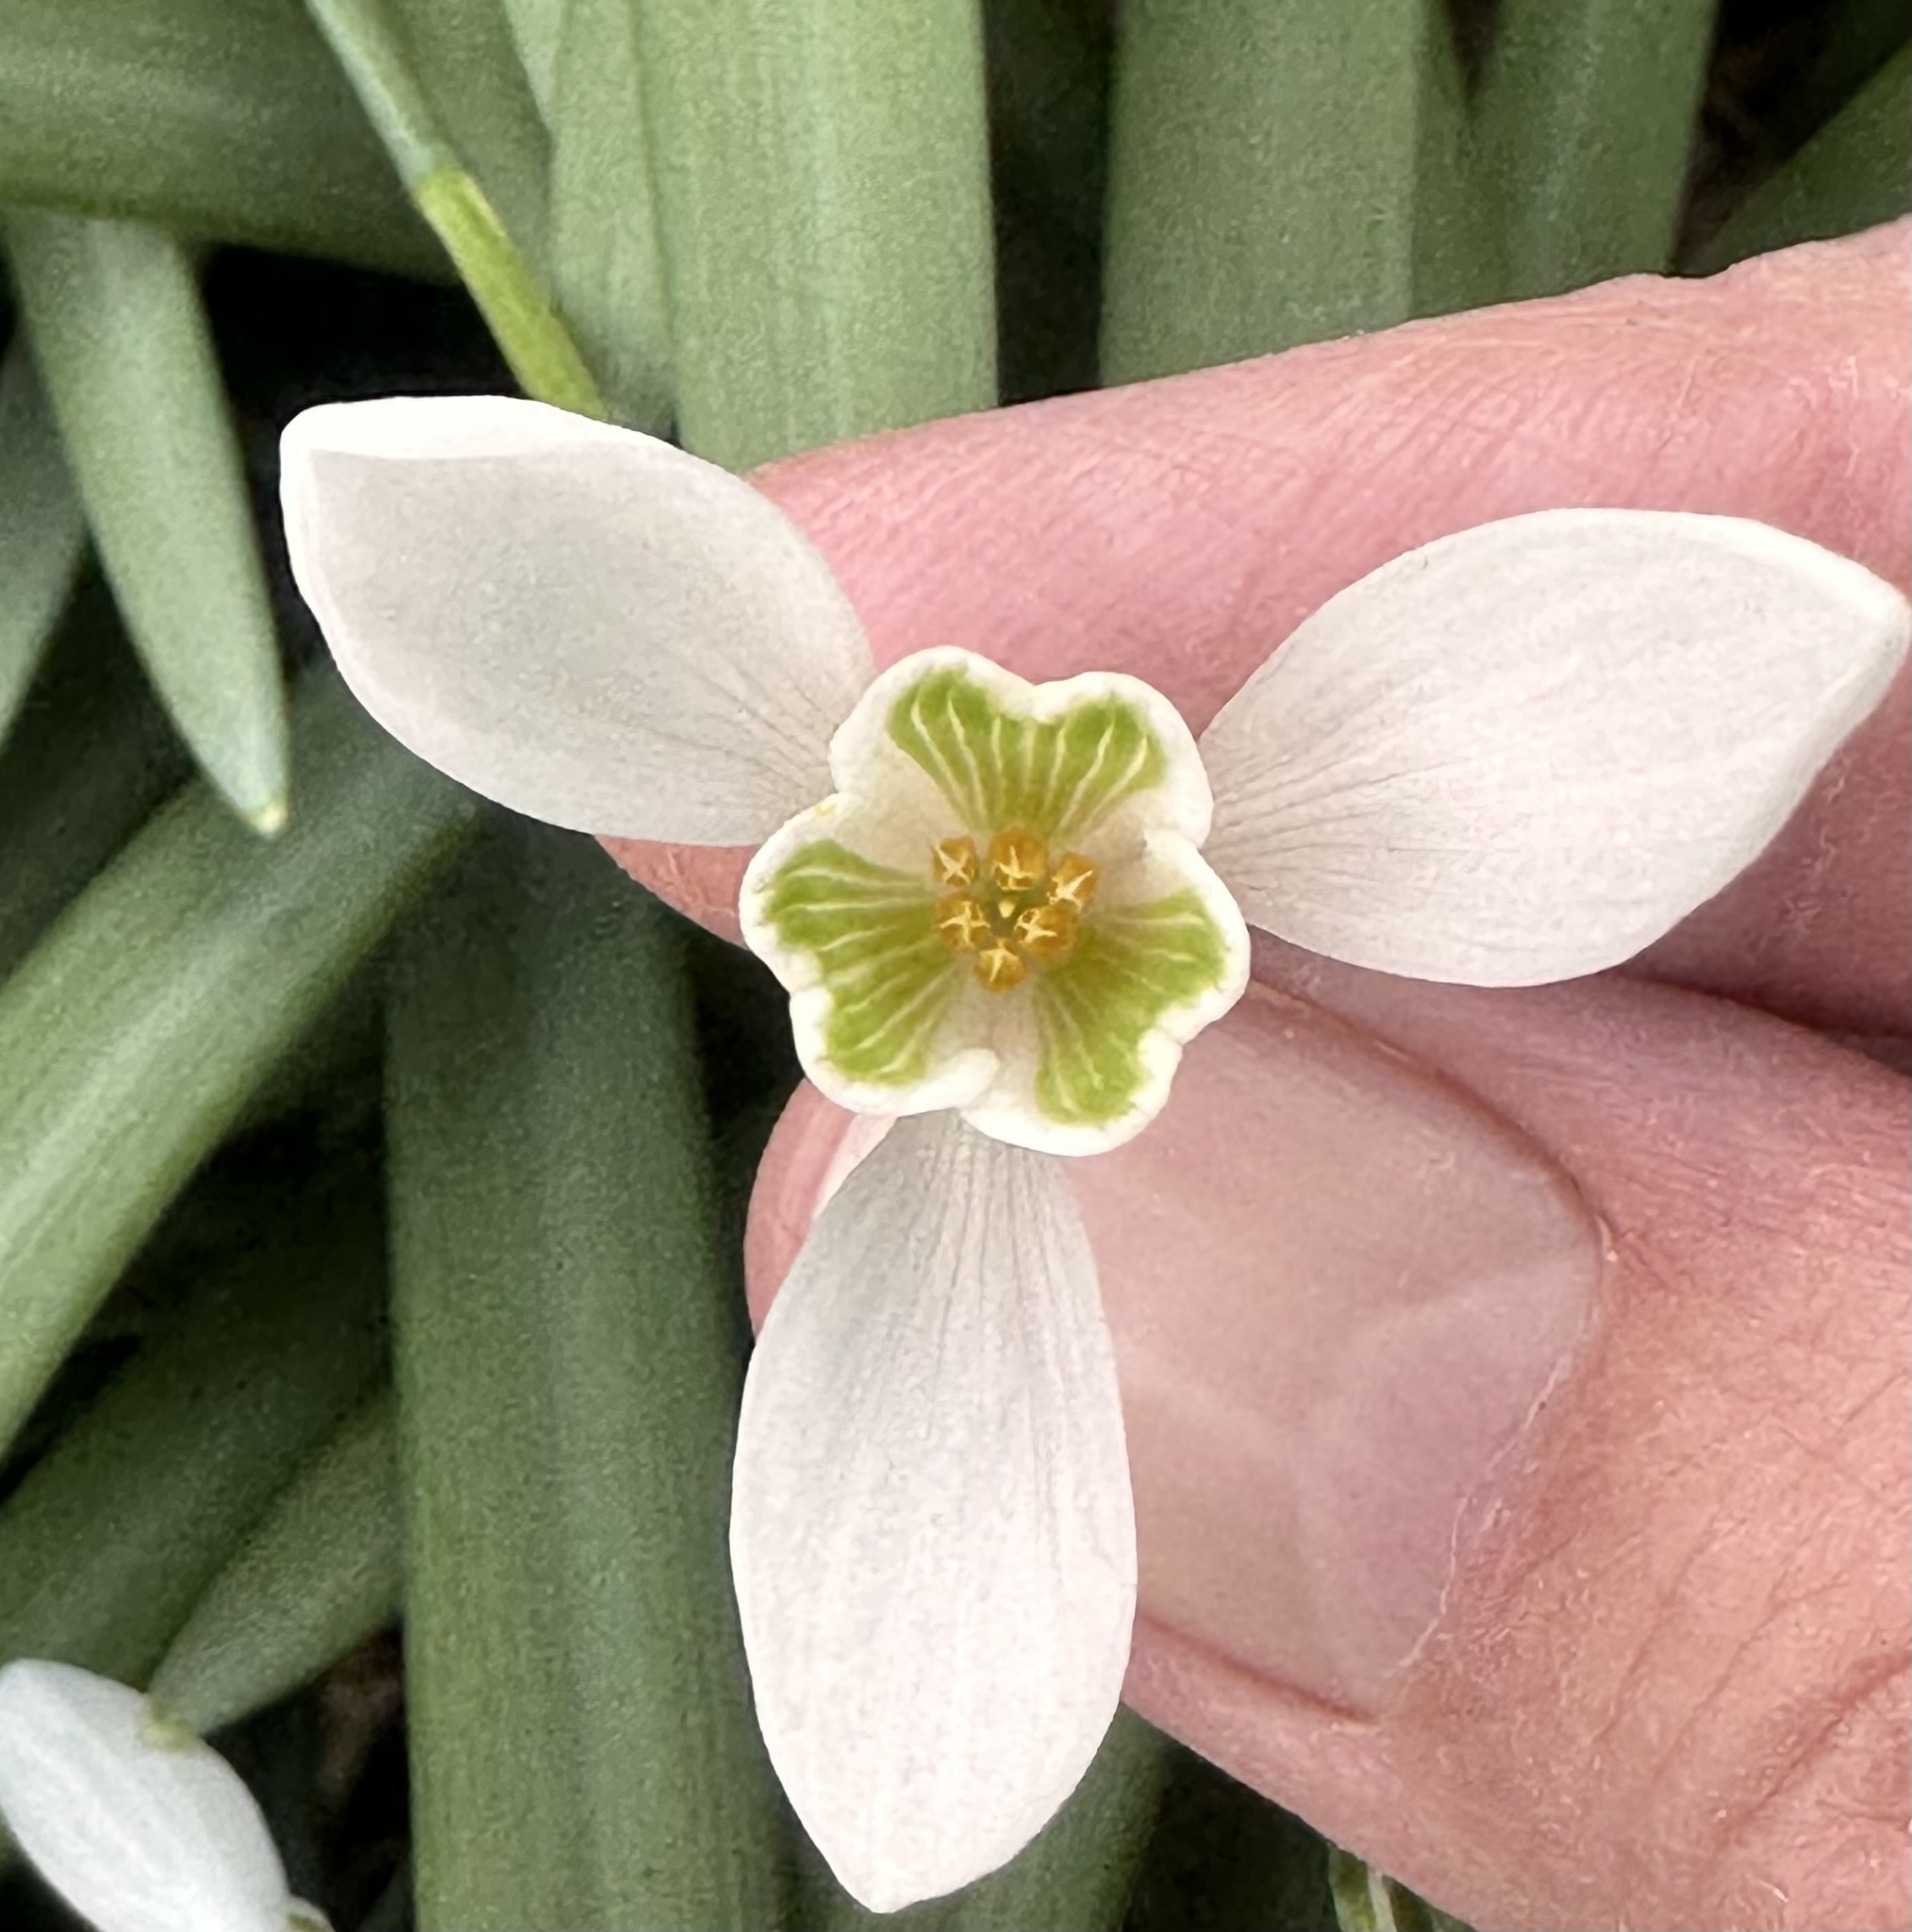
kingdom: Plantae
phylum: Tracheophyta
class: Liliopsida
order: Asparagales
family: Amaryllidaceae
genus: Galanthus
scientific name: Galanthus nivalis
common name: Snowdrop
